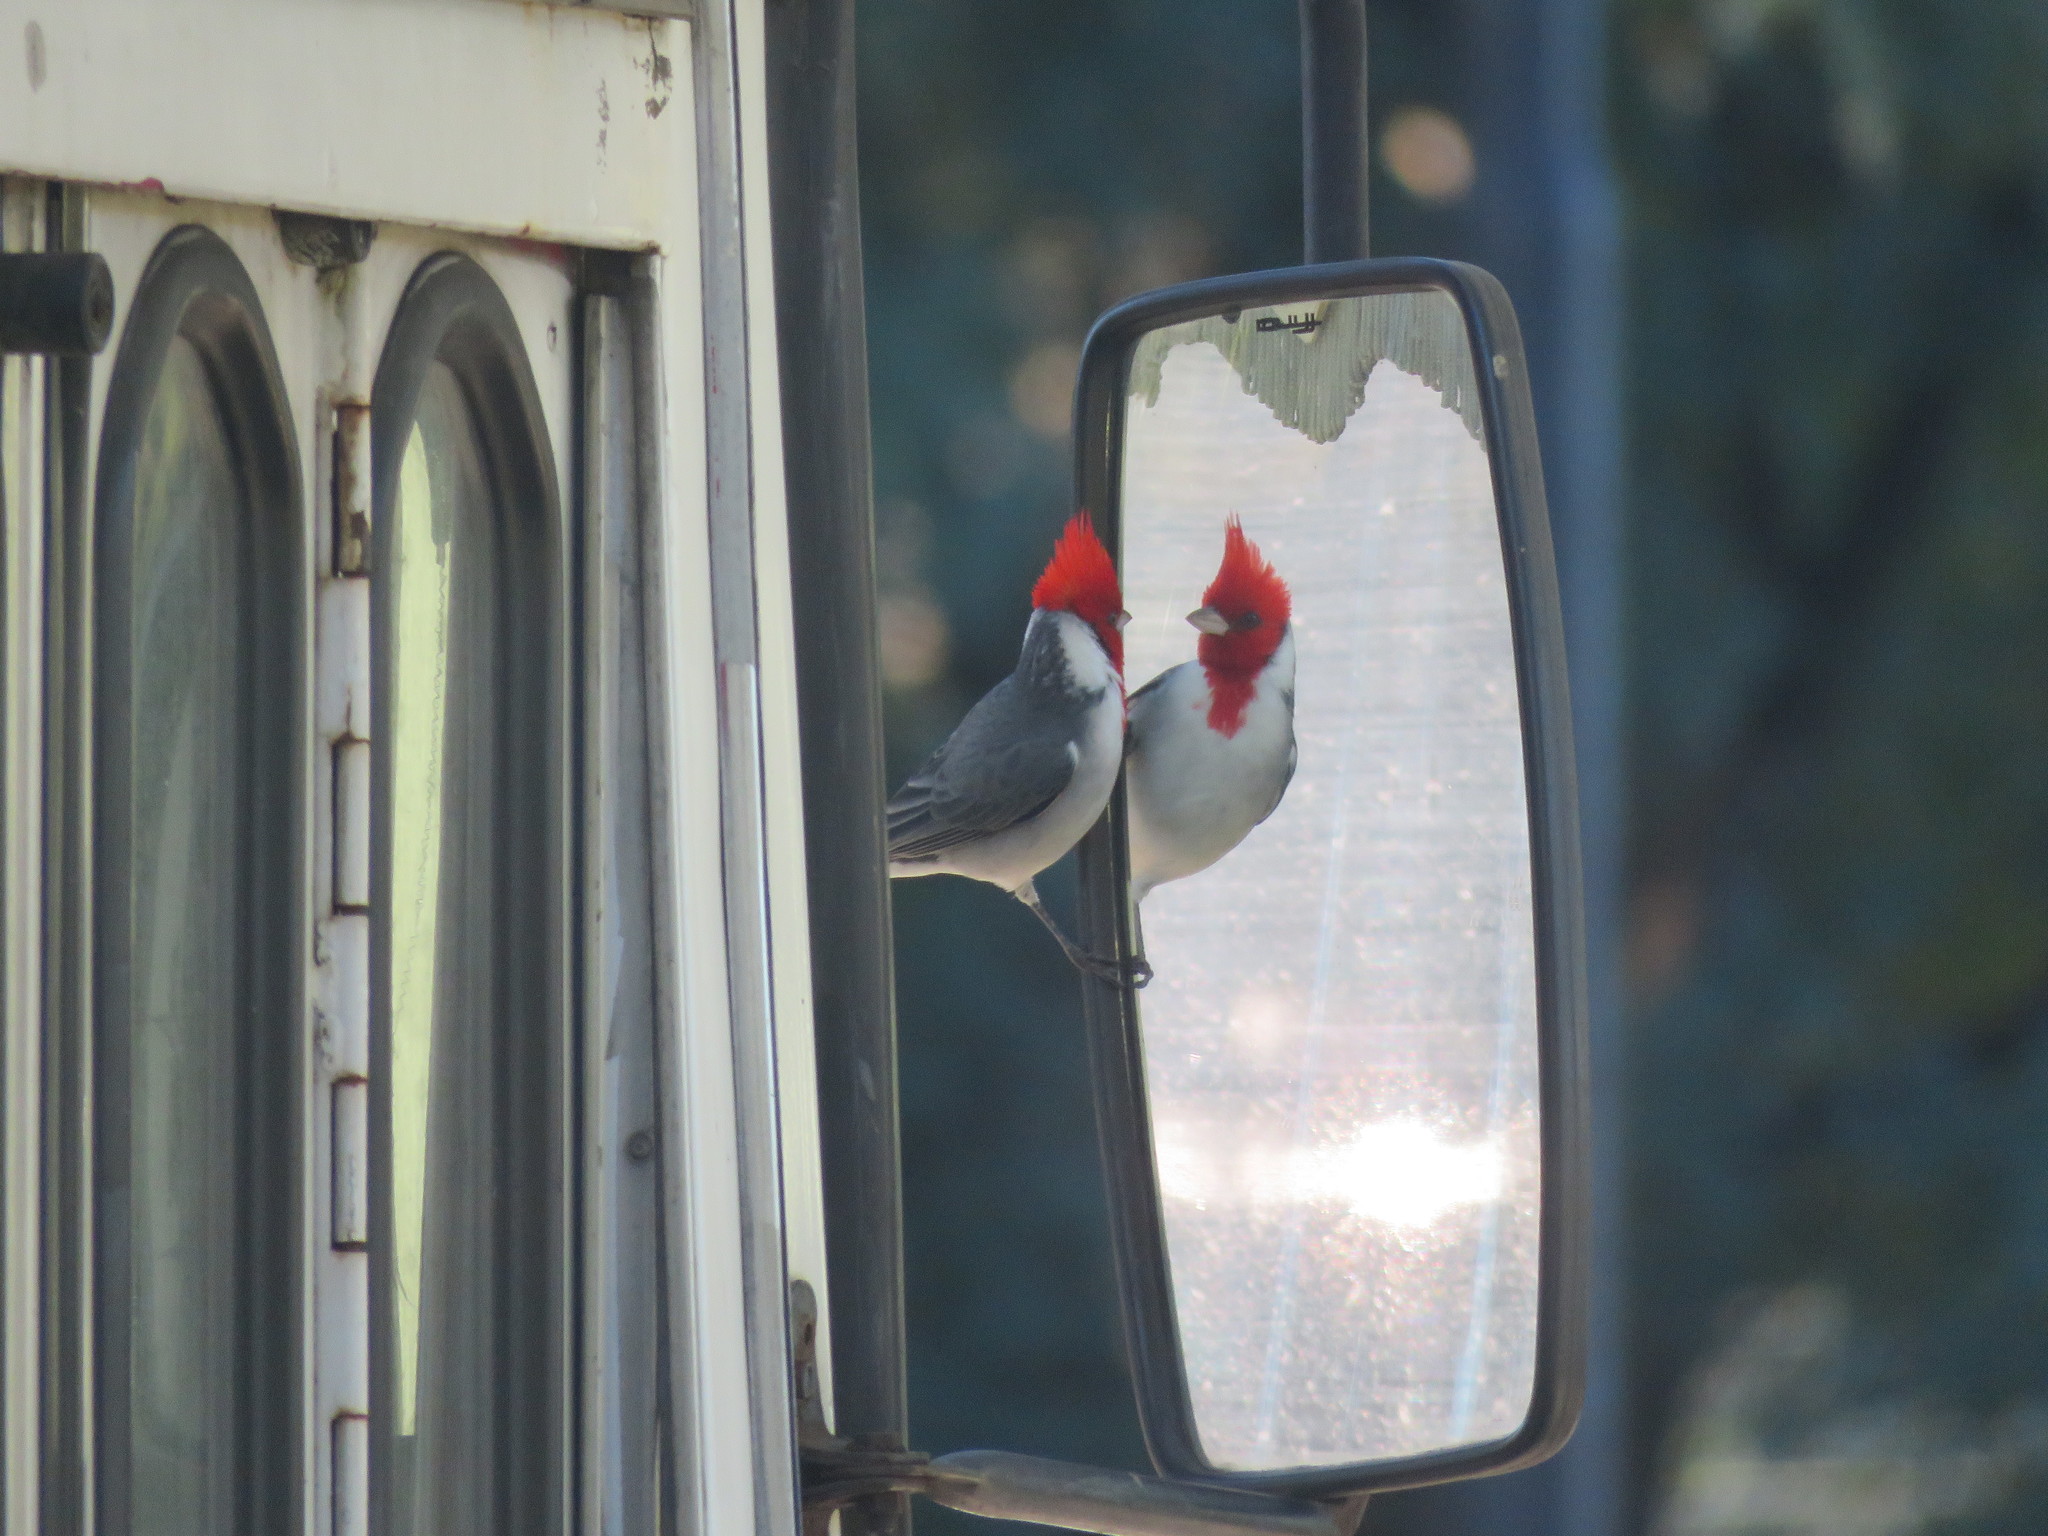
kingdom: Animalia
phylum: Chordata
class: Aves
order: Passeriformes
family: Thraupidae
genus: Paroaria
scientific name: Paroaria coronata
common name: Red-crested cardinal
